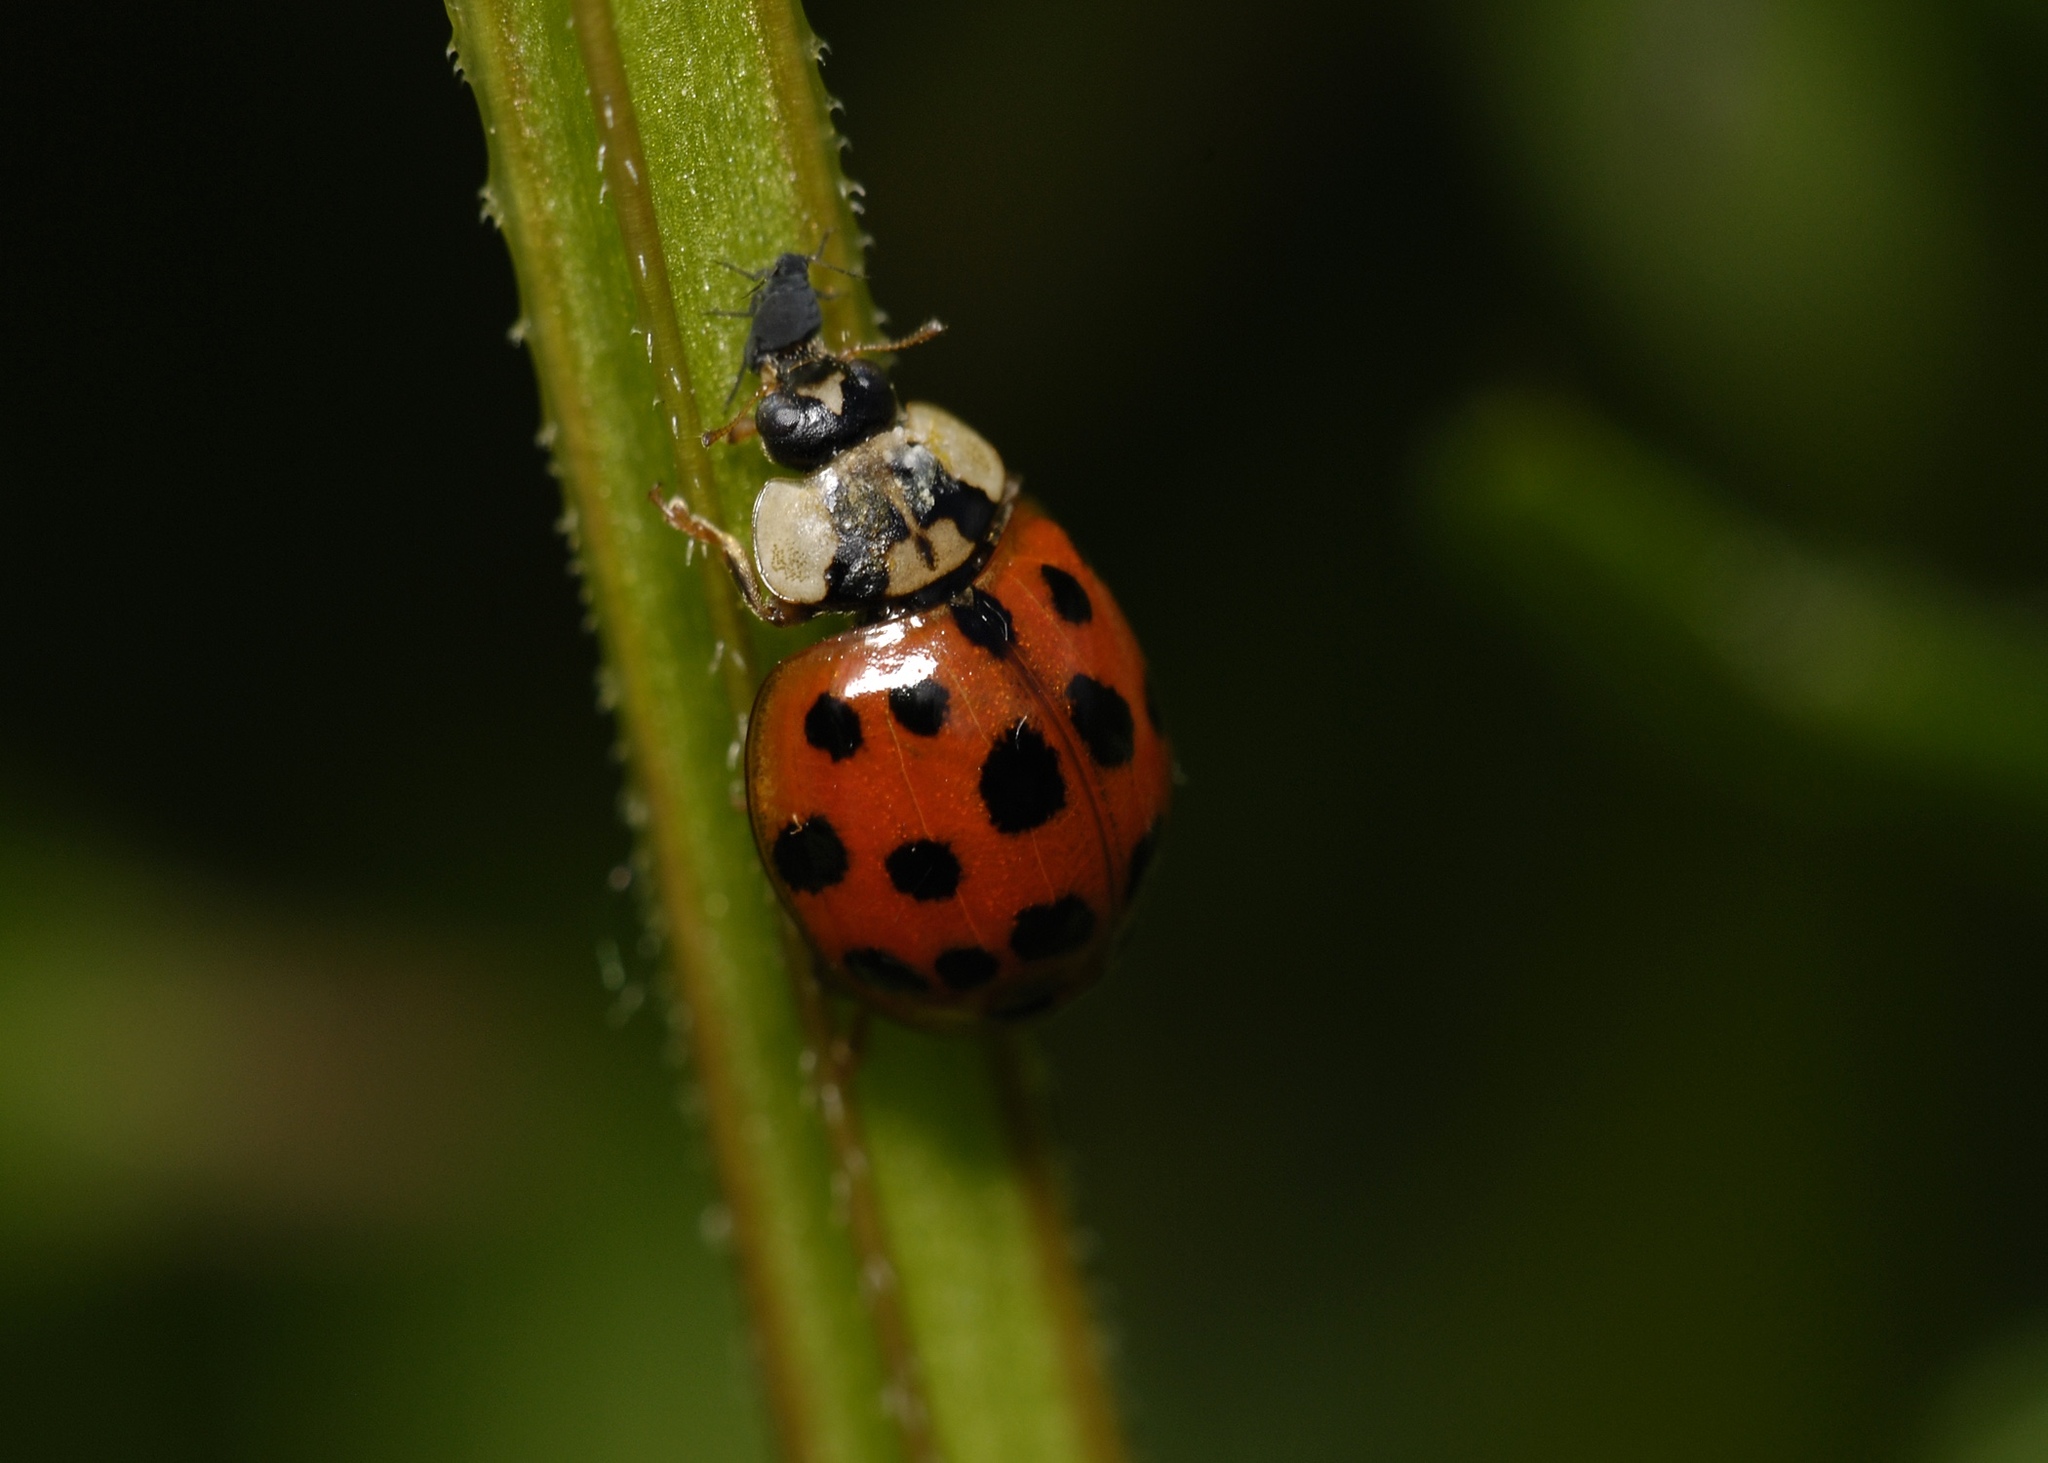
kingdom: Animalia
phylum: Arthropoda
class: Insecta
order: Coleoptera
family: Coccinellidae
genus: Harmonia
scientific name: Harmonia axyridis
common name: Harlequin ladybird
